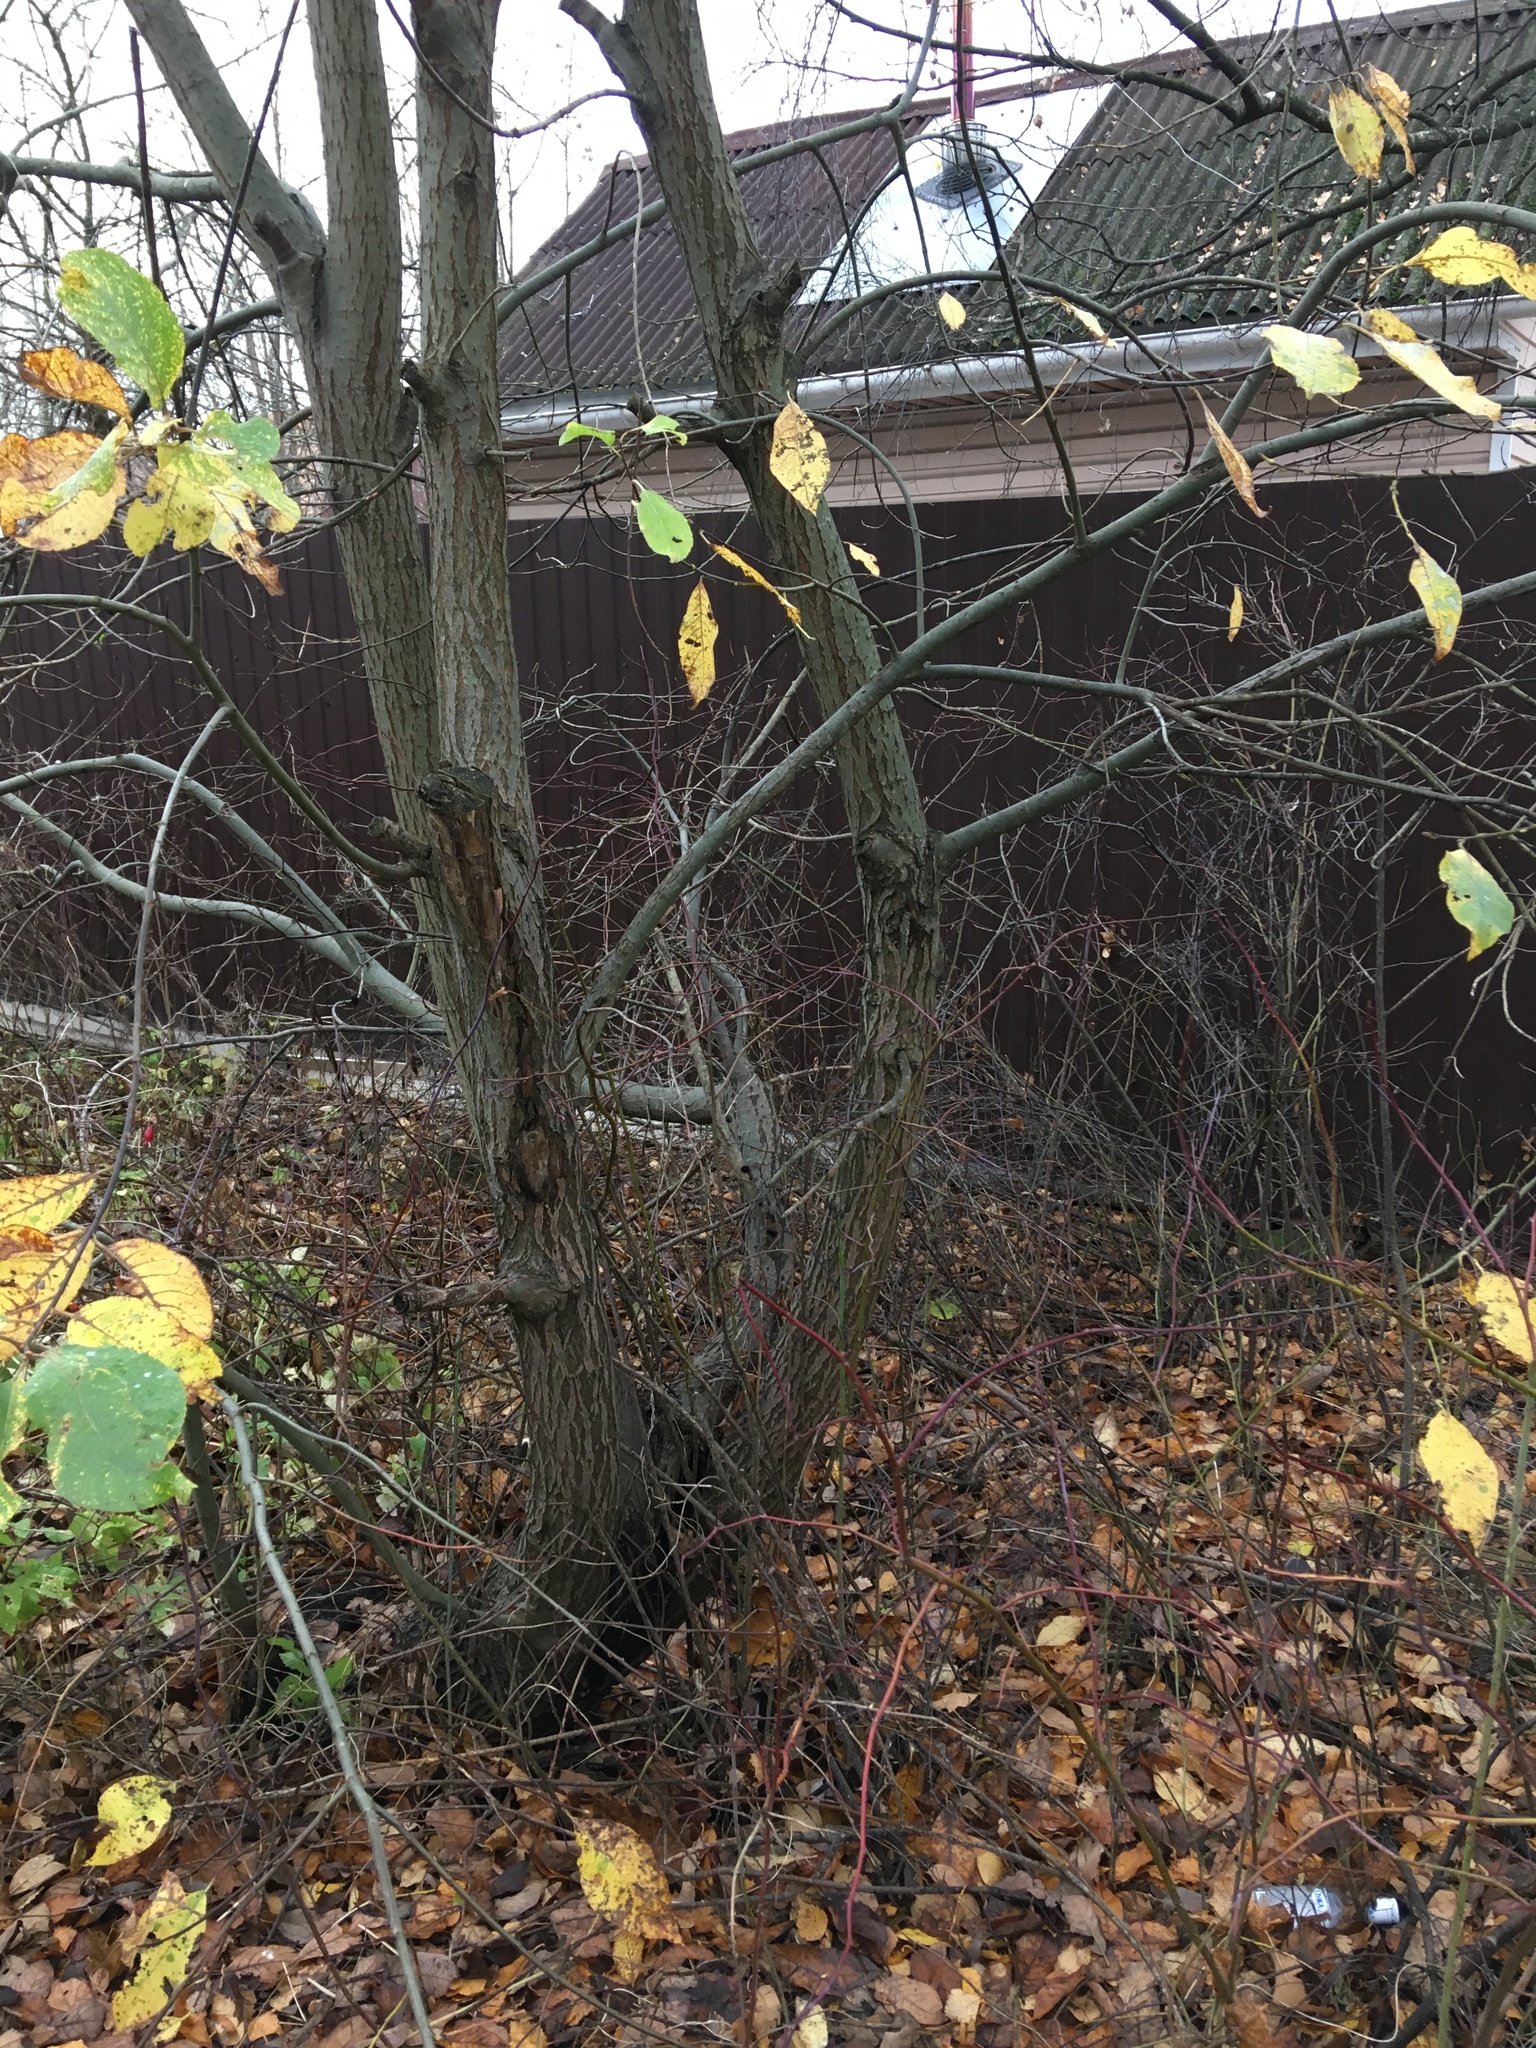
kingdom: Plantae
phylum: Tracheophyta
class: Magnoliopsida
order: Malpighiales
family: Salicaceae
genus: Salix
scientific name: Salix caprea
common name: Goat willow
